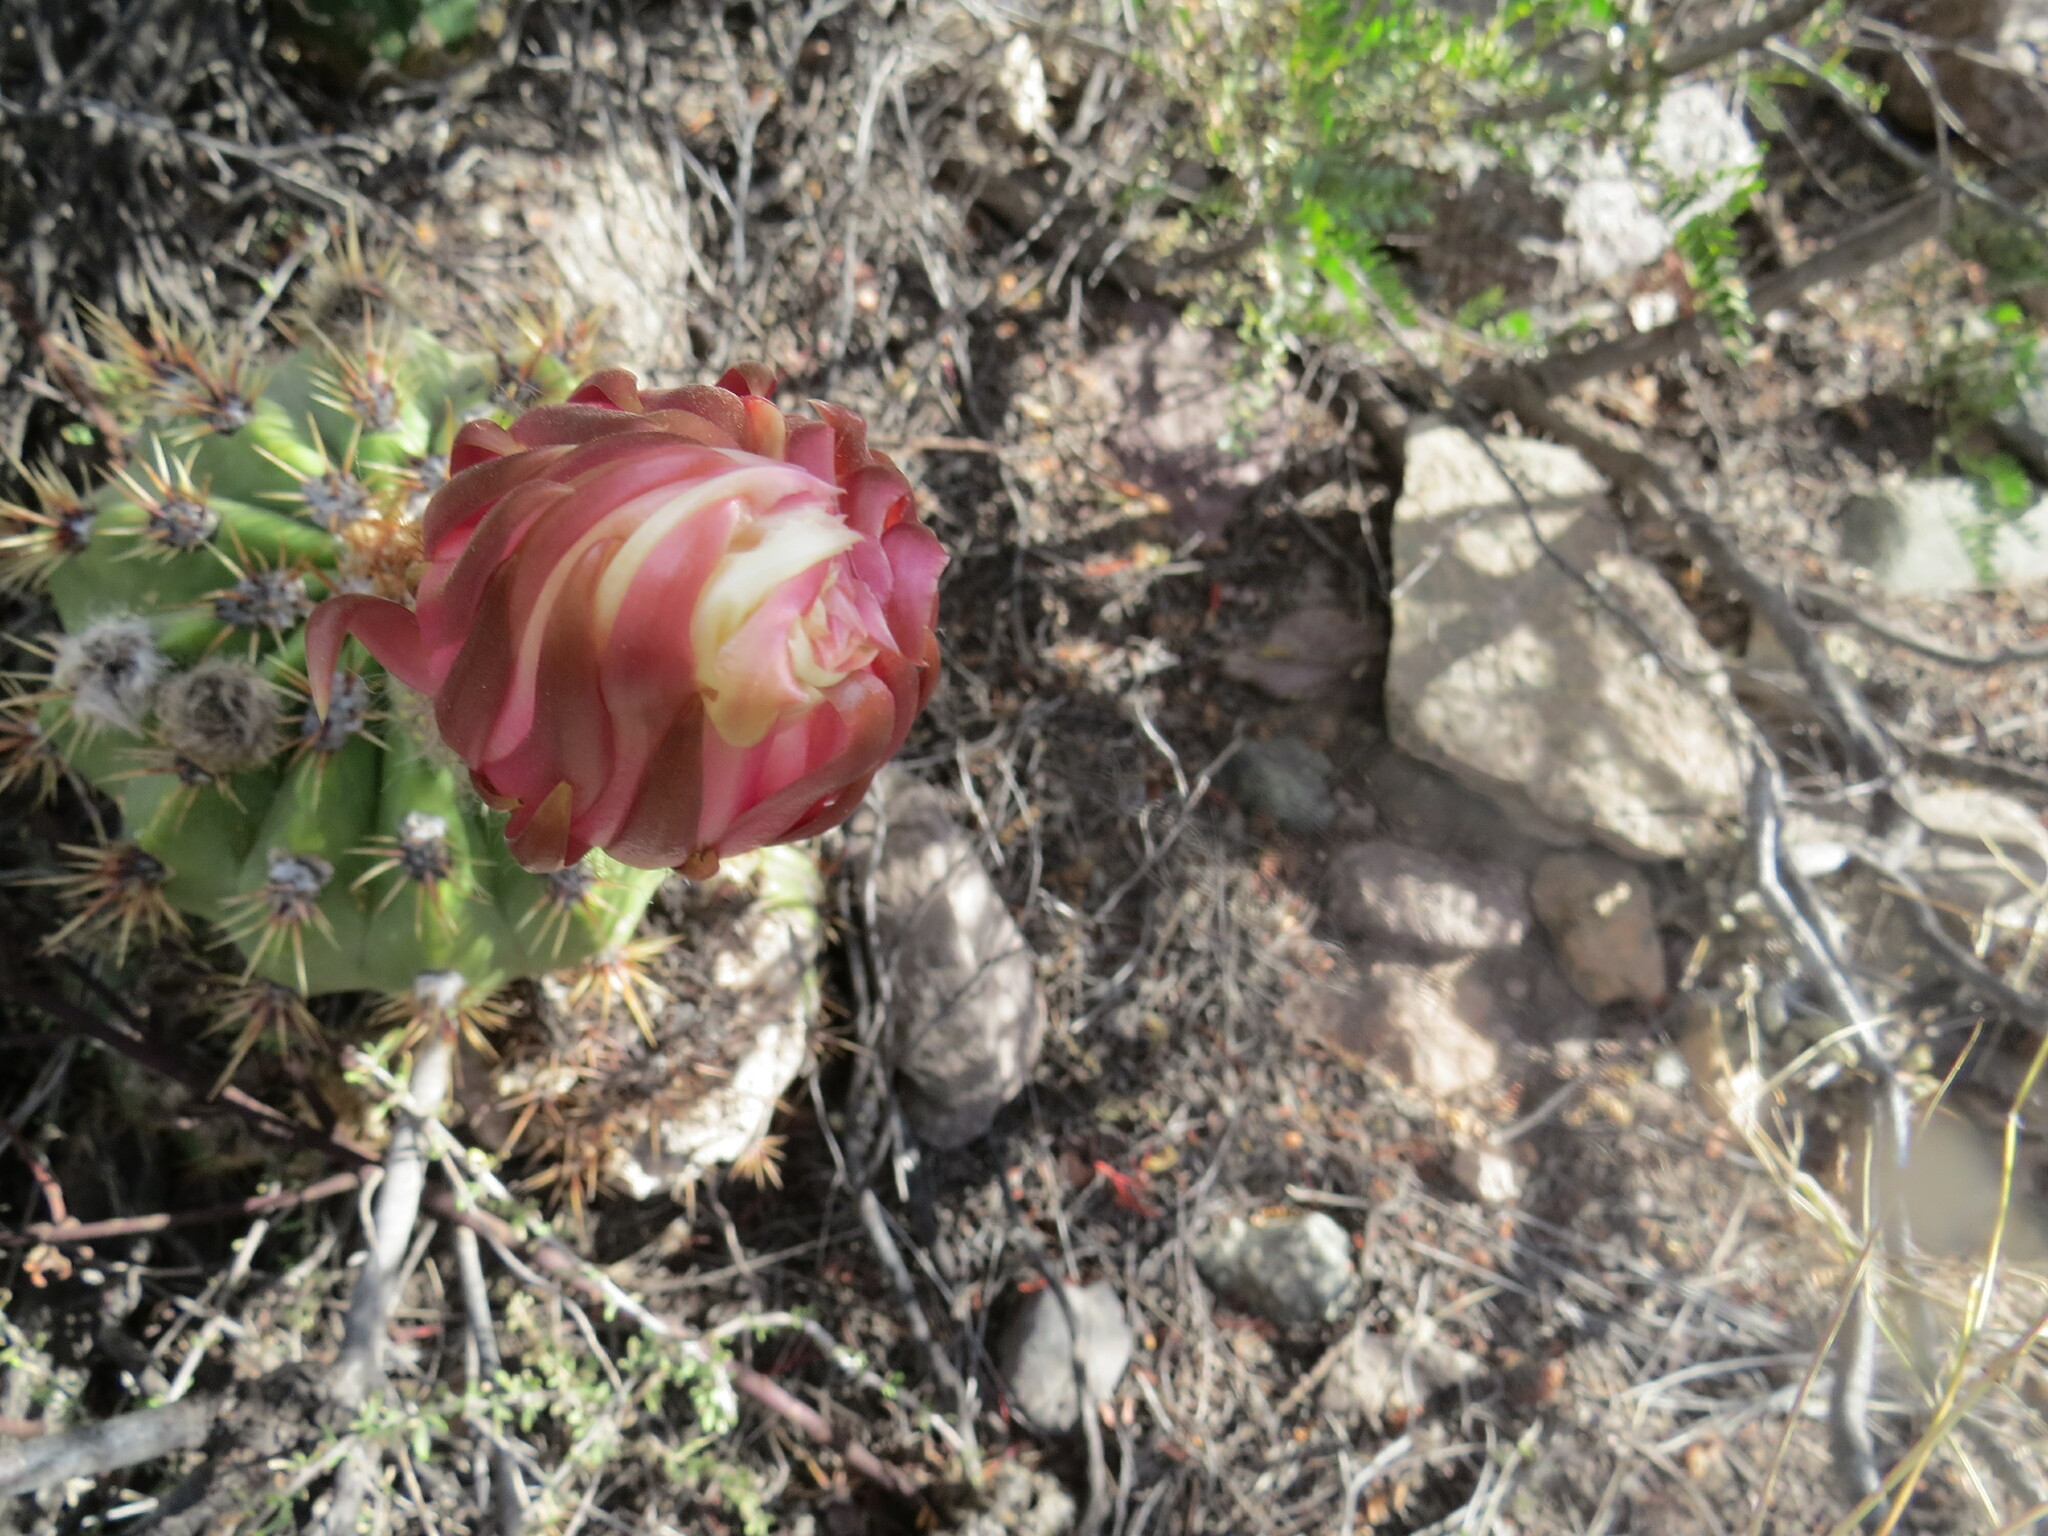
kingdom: Plantae
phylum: Tracheophyta
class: Magnoliopsida
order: Caryophyllales
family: Cactaceae
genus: Soehrensia
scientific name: Soehrensia candicans
